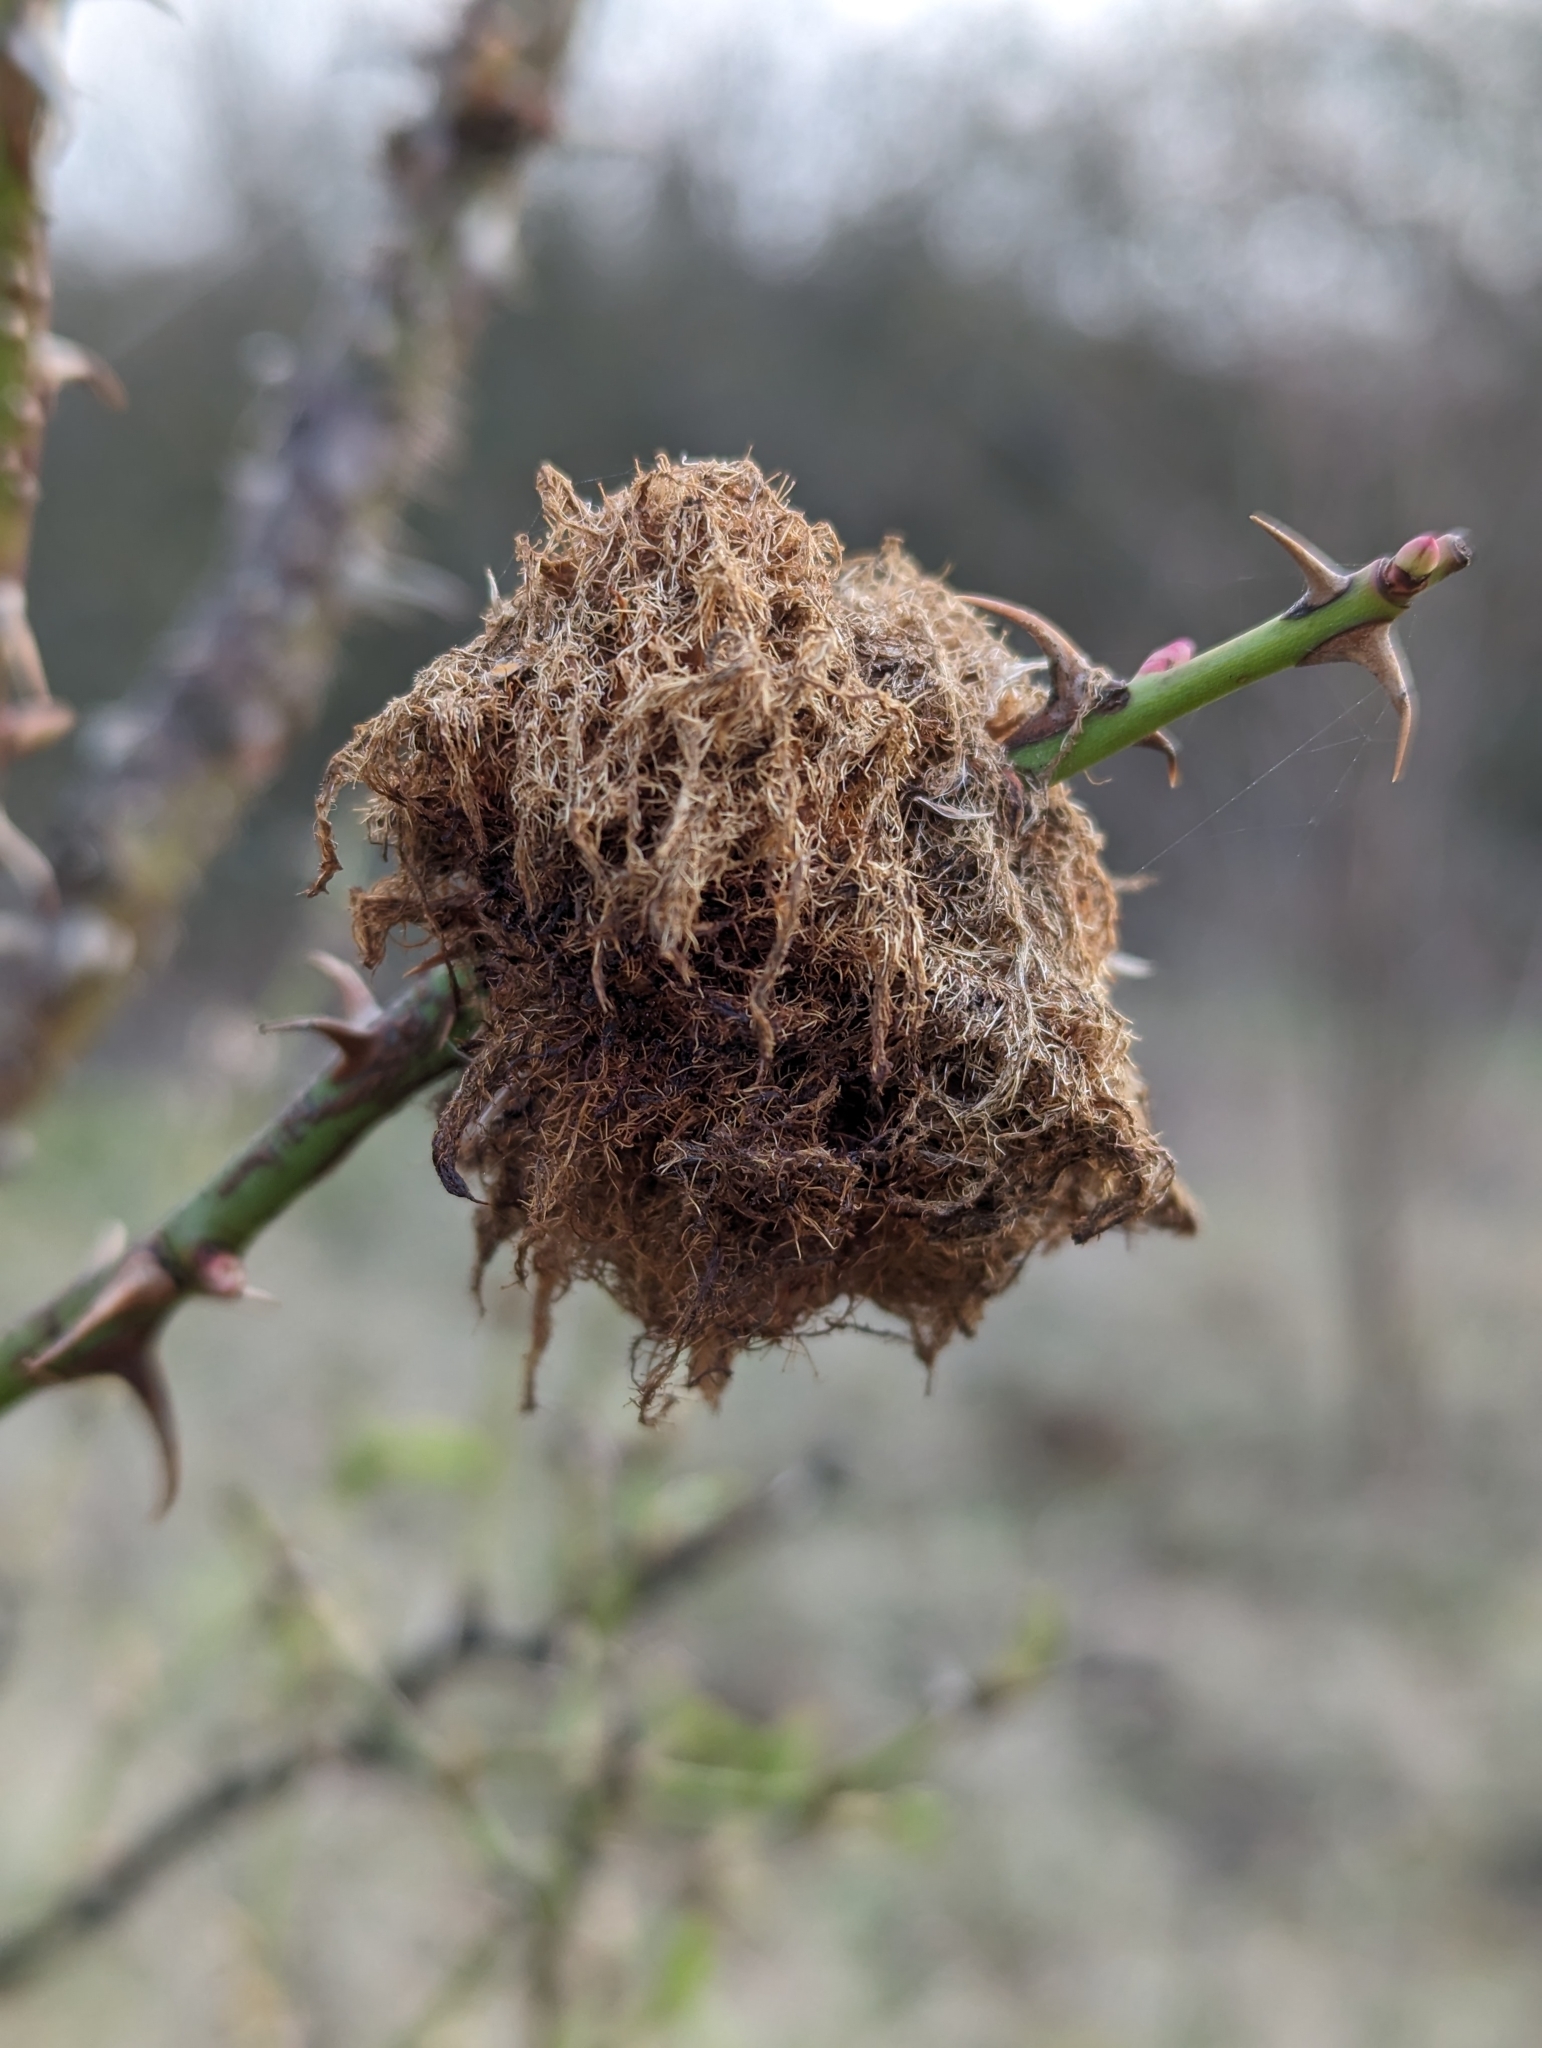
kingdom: Animalia
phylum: Arthropoda
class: Insecta
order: Hymenoptera
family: Cynipidae
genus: Diplolepis
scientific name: Diplolepis rosae
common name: Bedeguar gall
